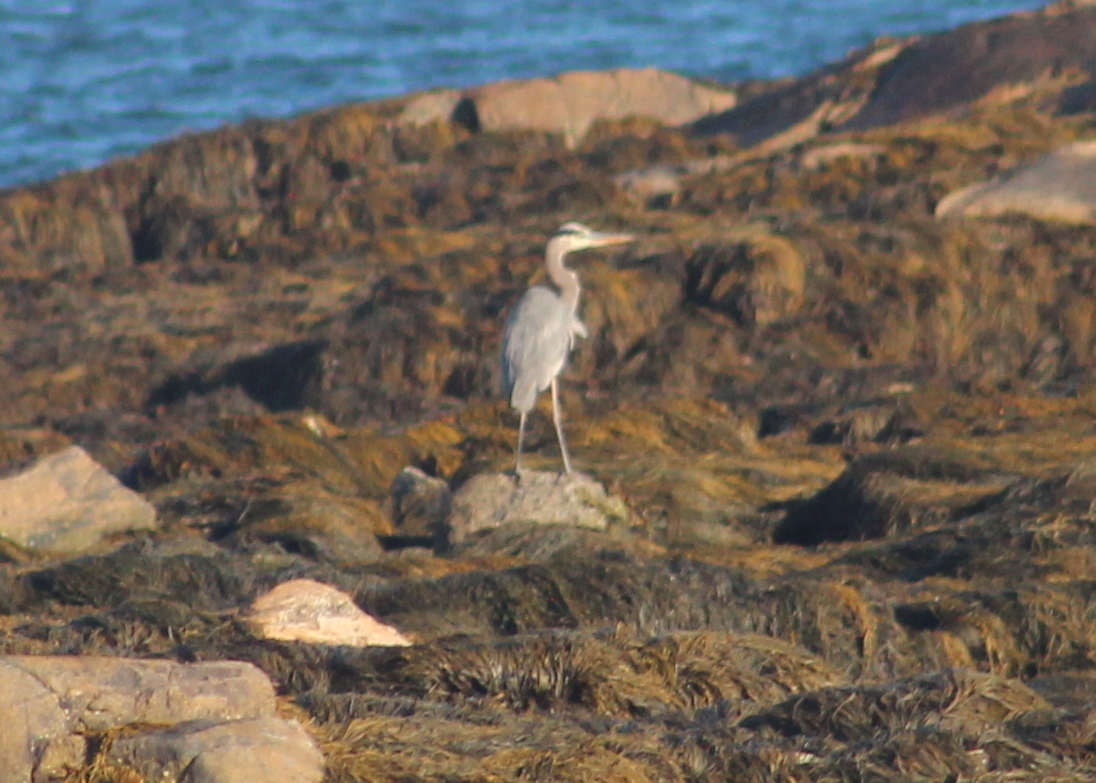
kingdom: Animalia
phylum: Chordata
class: Aves
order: Pelecaniformes
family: Ardeidae
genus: Ardea
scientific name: Ardea herodias
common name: Great blue heron
